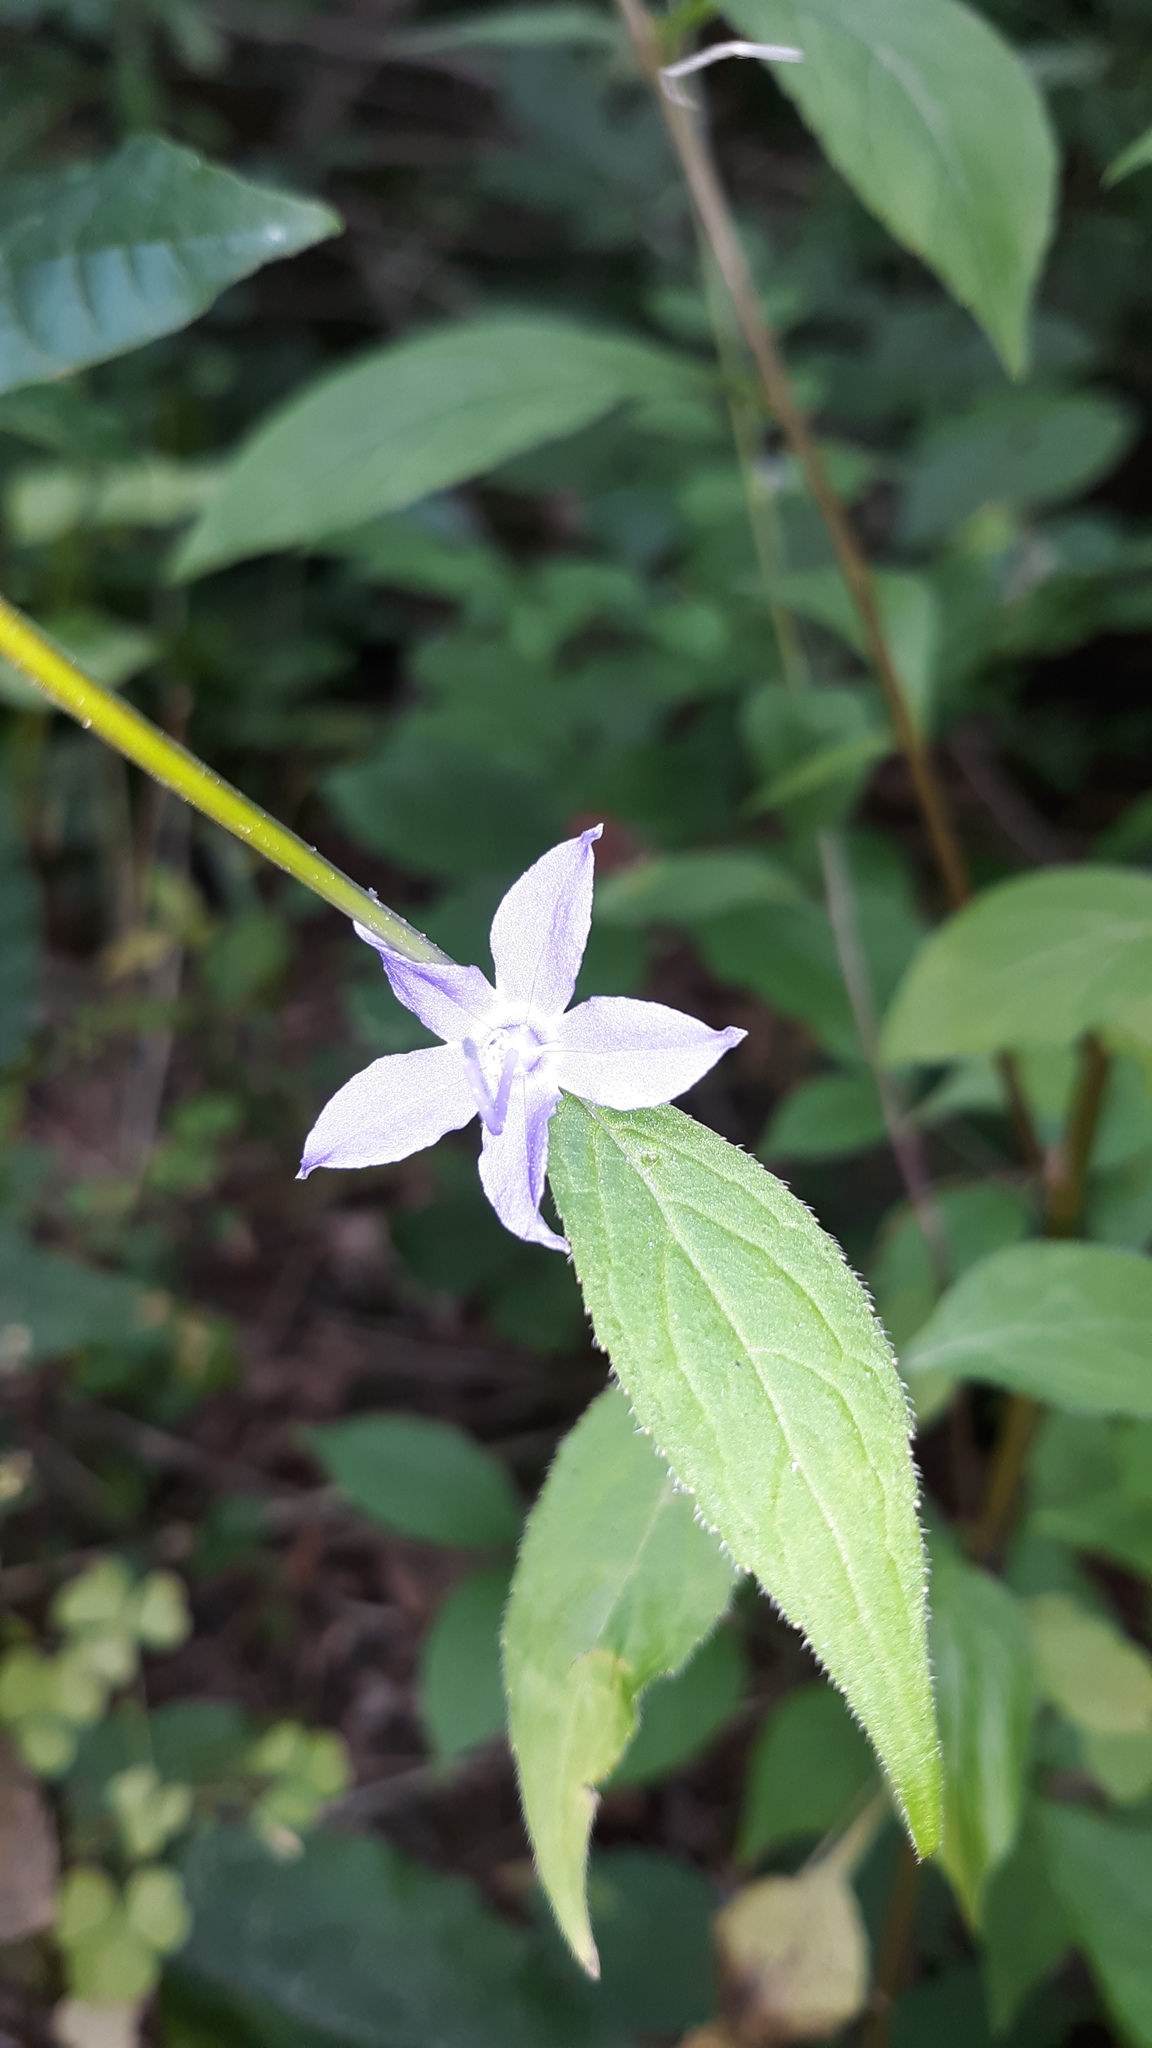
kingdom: Plantae
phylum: Tracheophyta
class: Magnoliopsida
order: Asterales
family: Campanulaceae
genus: Campanulastrum
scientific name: Campanulastrum americanum
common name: American bellflower
